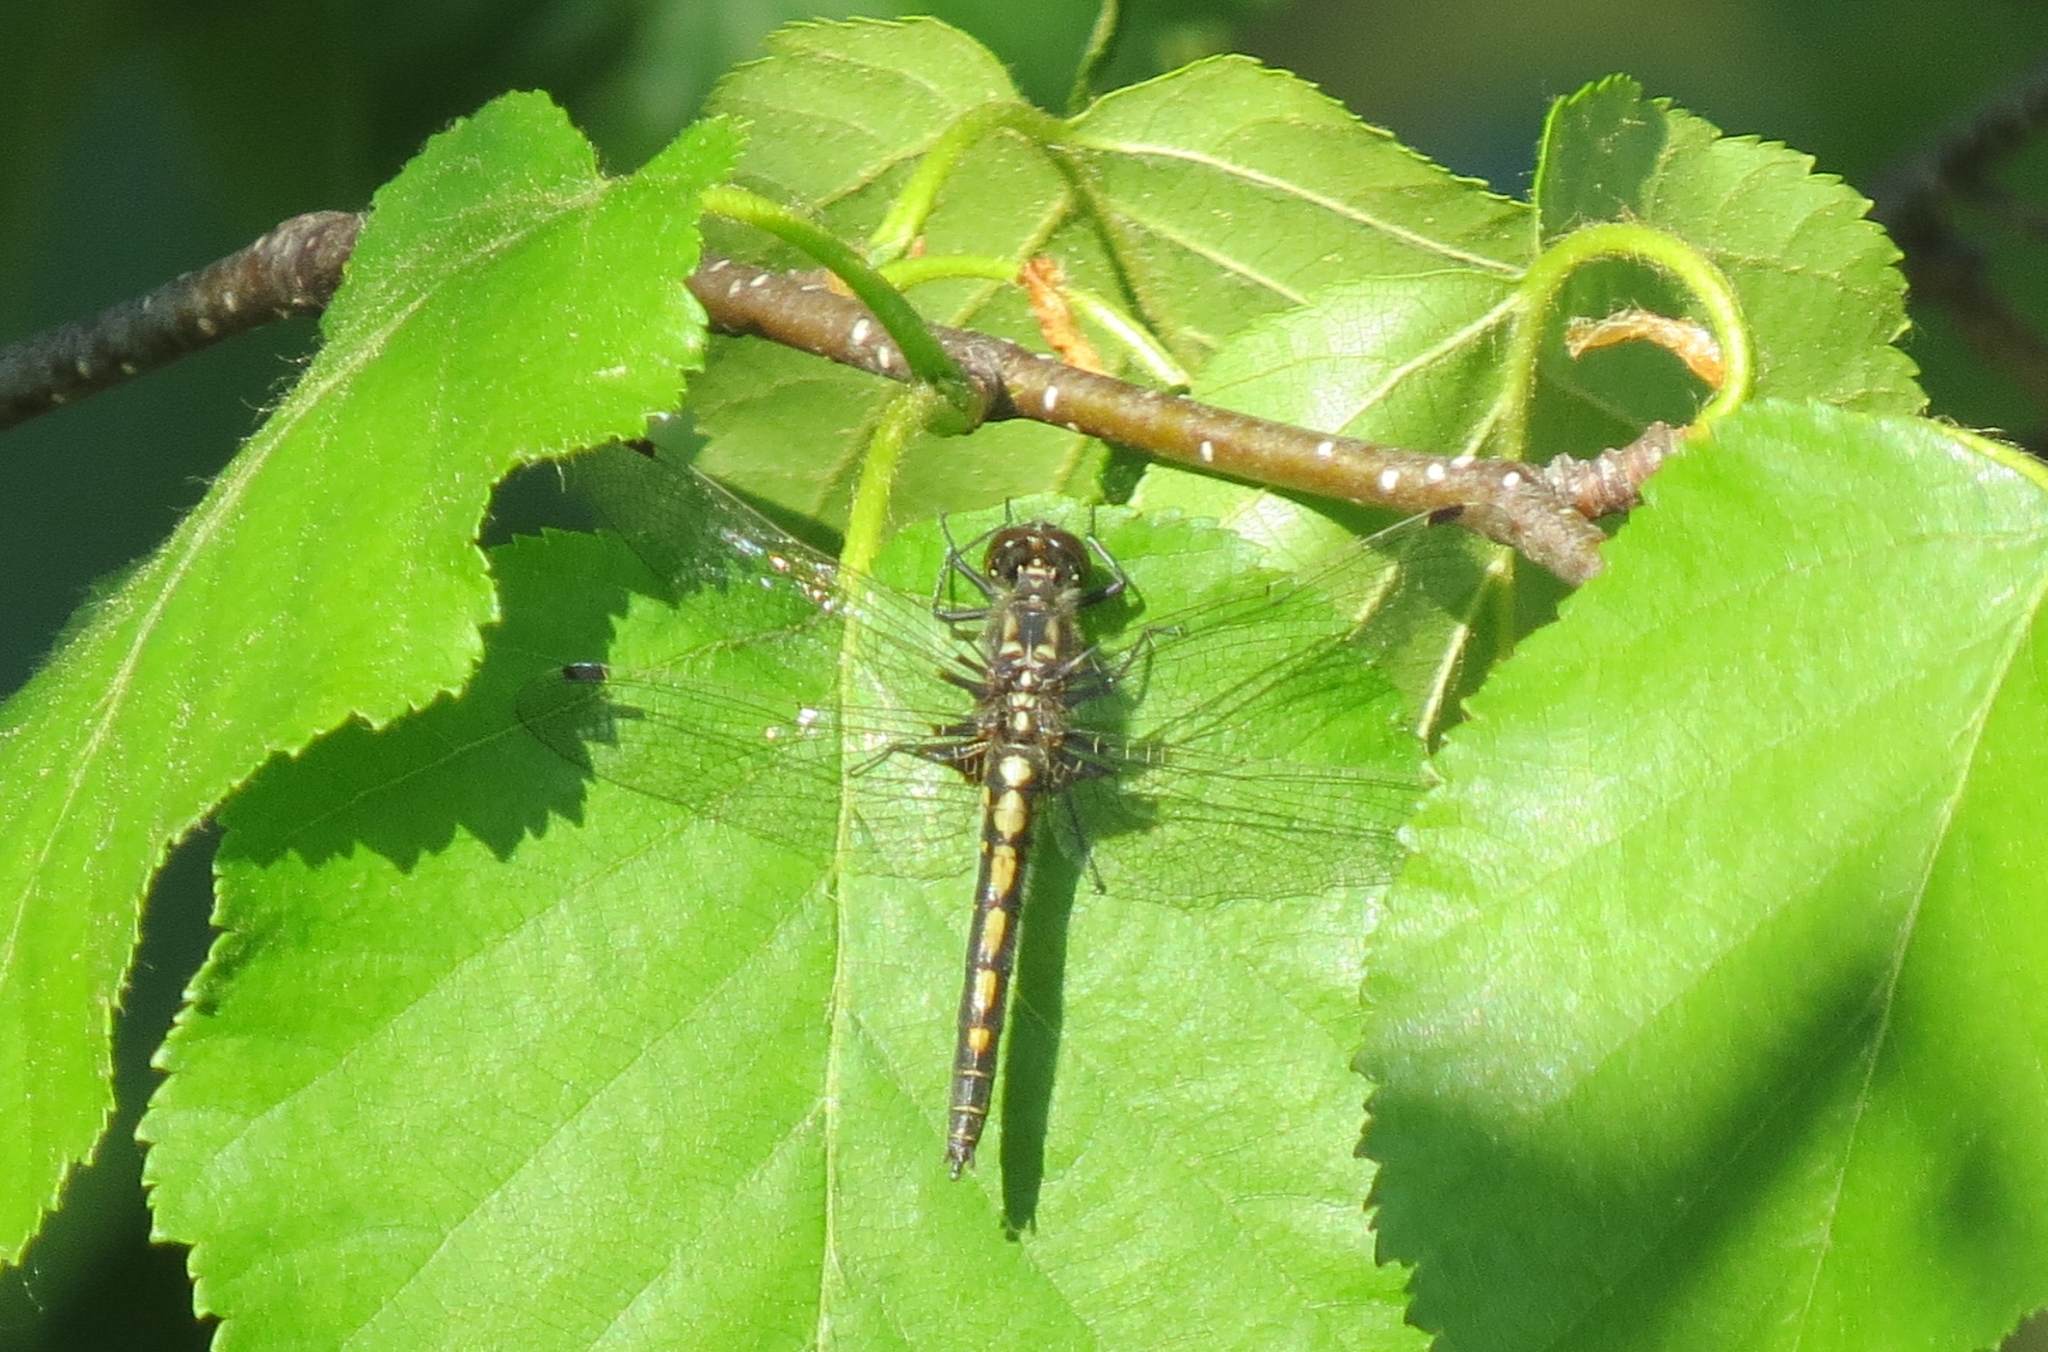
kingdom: Animalia
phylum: Arthropoda
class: Insecta
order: Odonata
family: Libellulidae
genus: Leucorrhinia
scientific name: Leucorrhinia hudsonica
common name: Hudsonian whiteface
